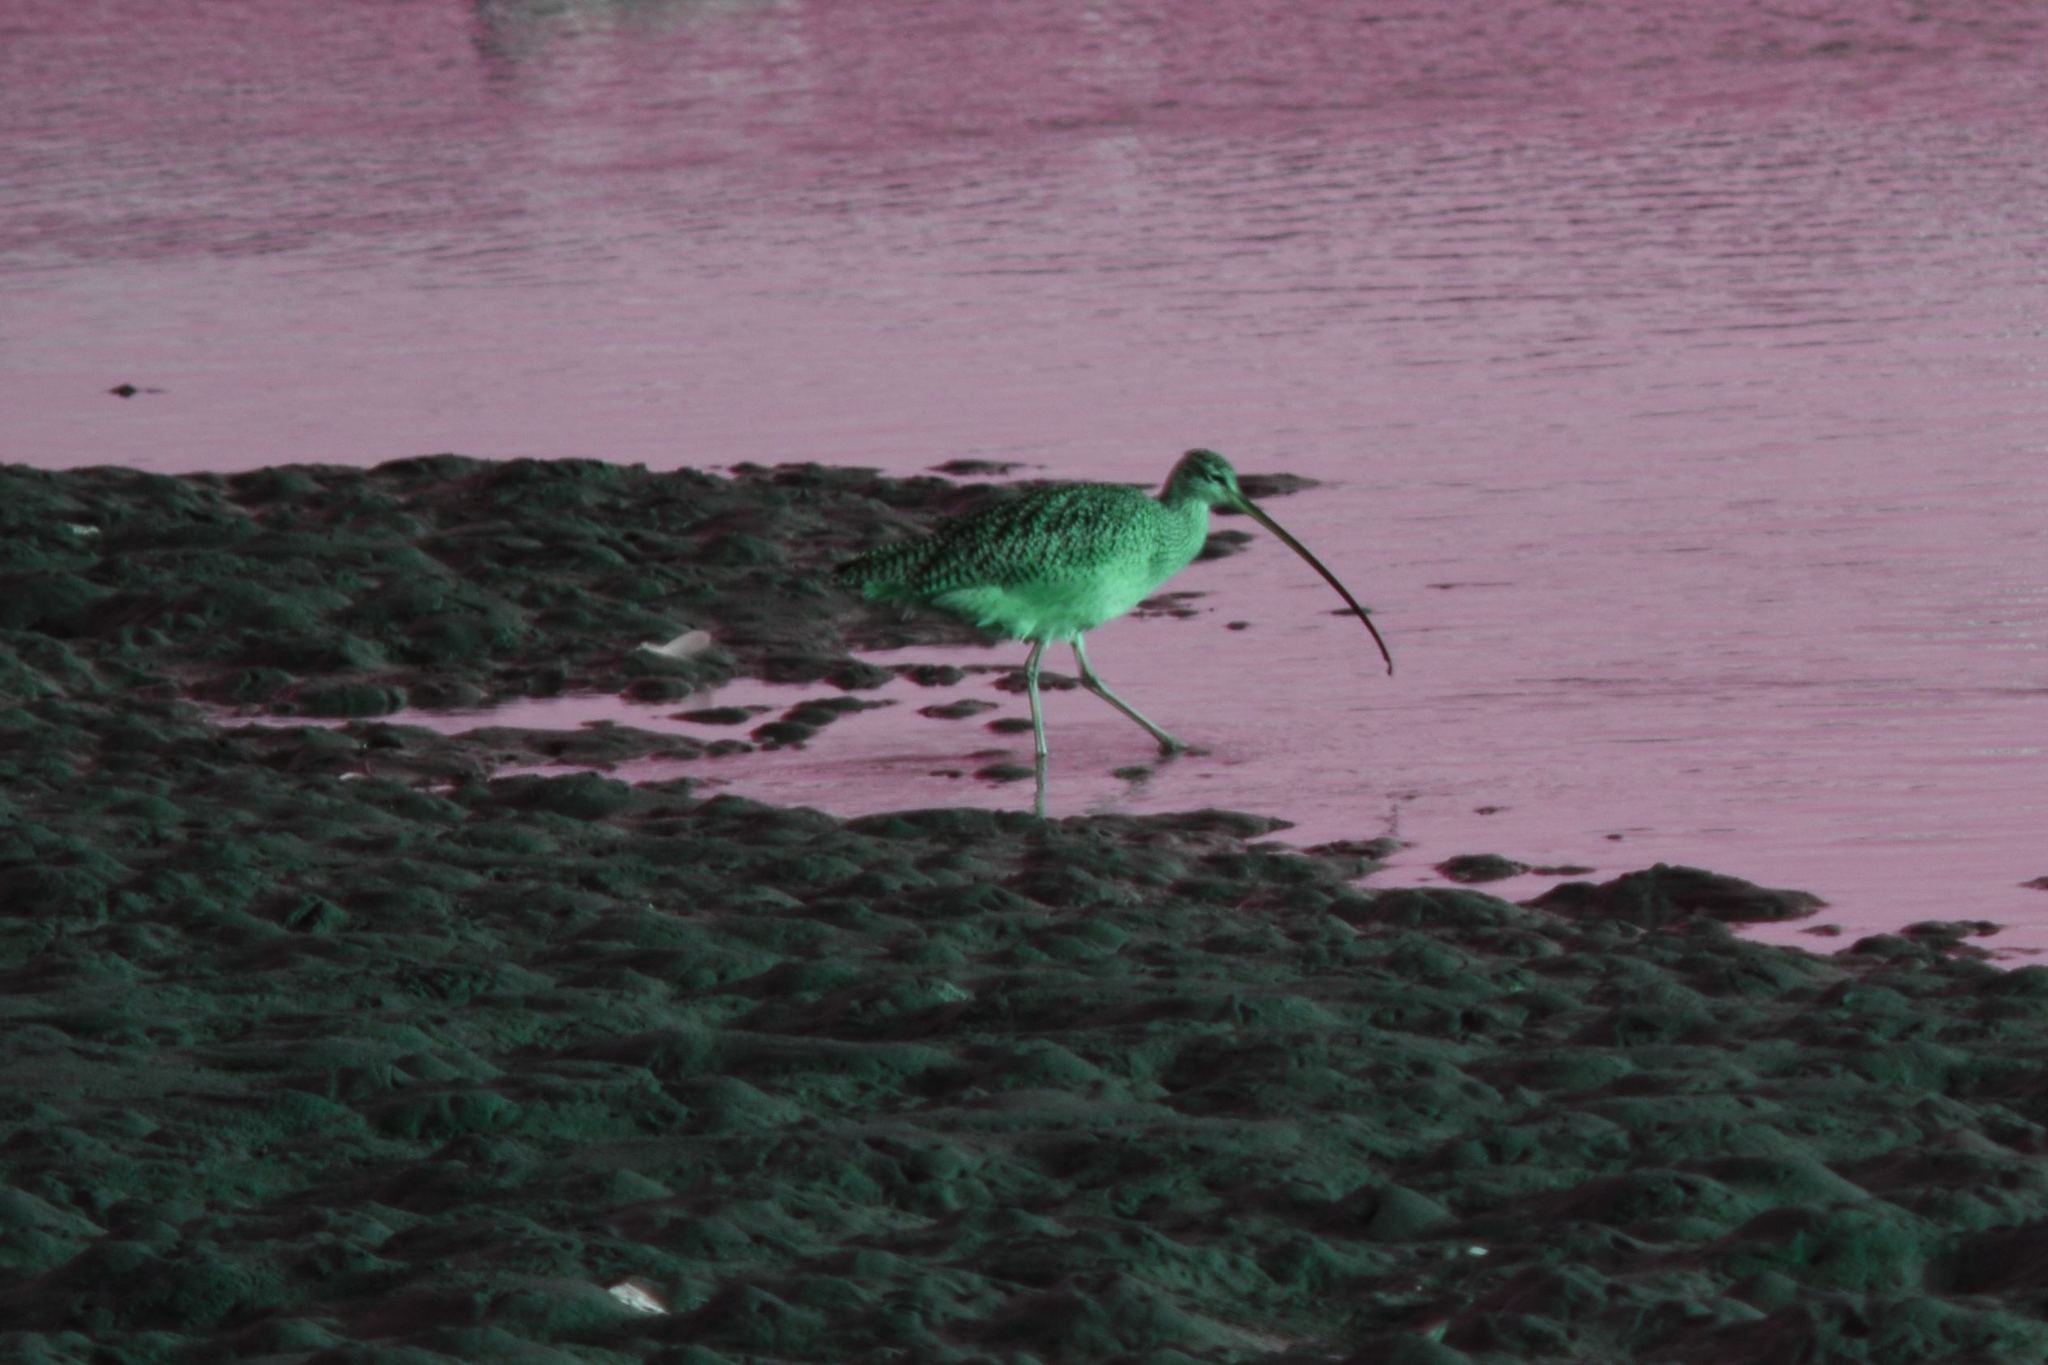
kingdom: Animalia
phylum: Chordata
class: Aves
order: Charadriiformes
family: Scolopacidae
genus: Numenius
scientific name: Numenius americanus
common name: Long-billed curlew
